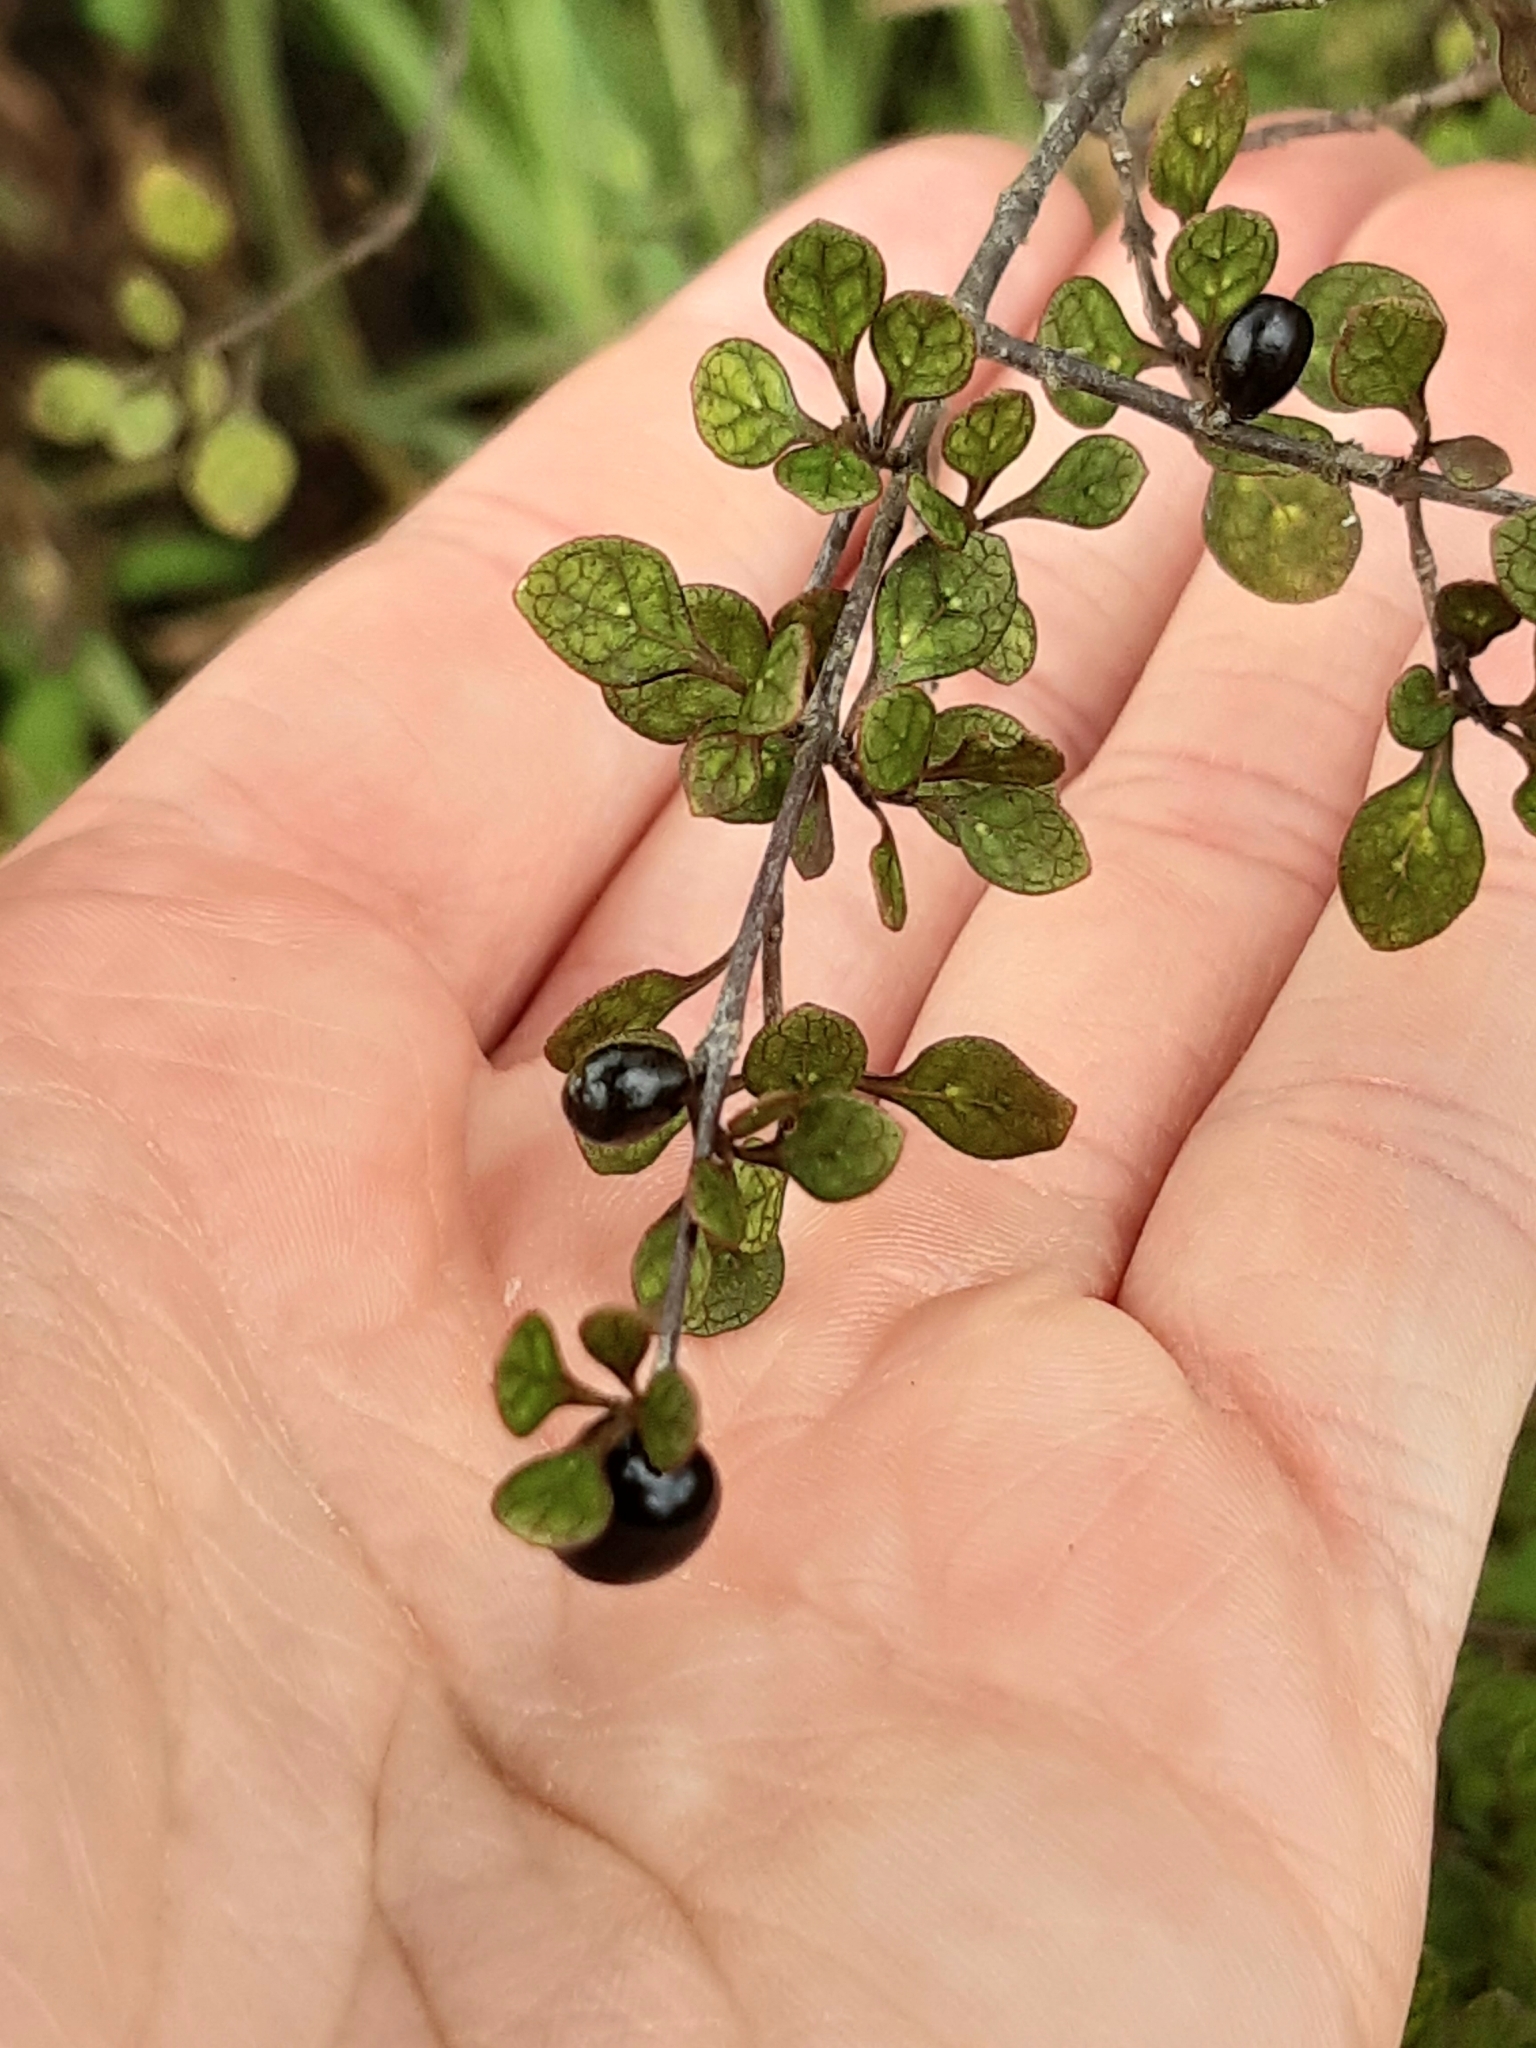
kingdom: Plantae
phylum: Tracheophyta
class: Magnoliopsida
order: Gentianales
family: Rubiaceae
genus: Coprosma
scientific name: Coprosma tenuicaulis
